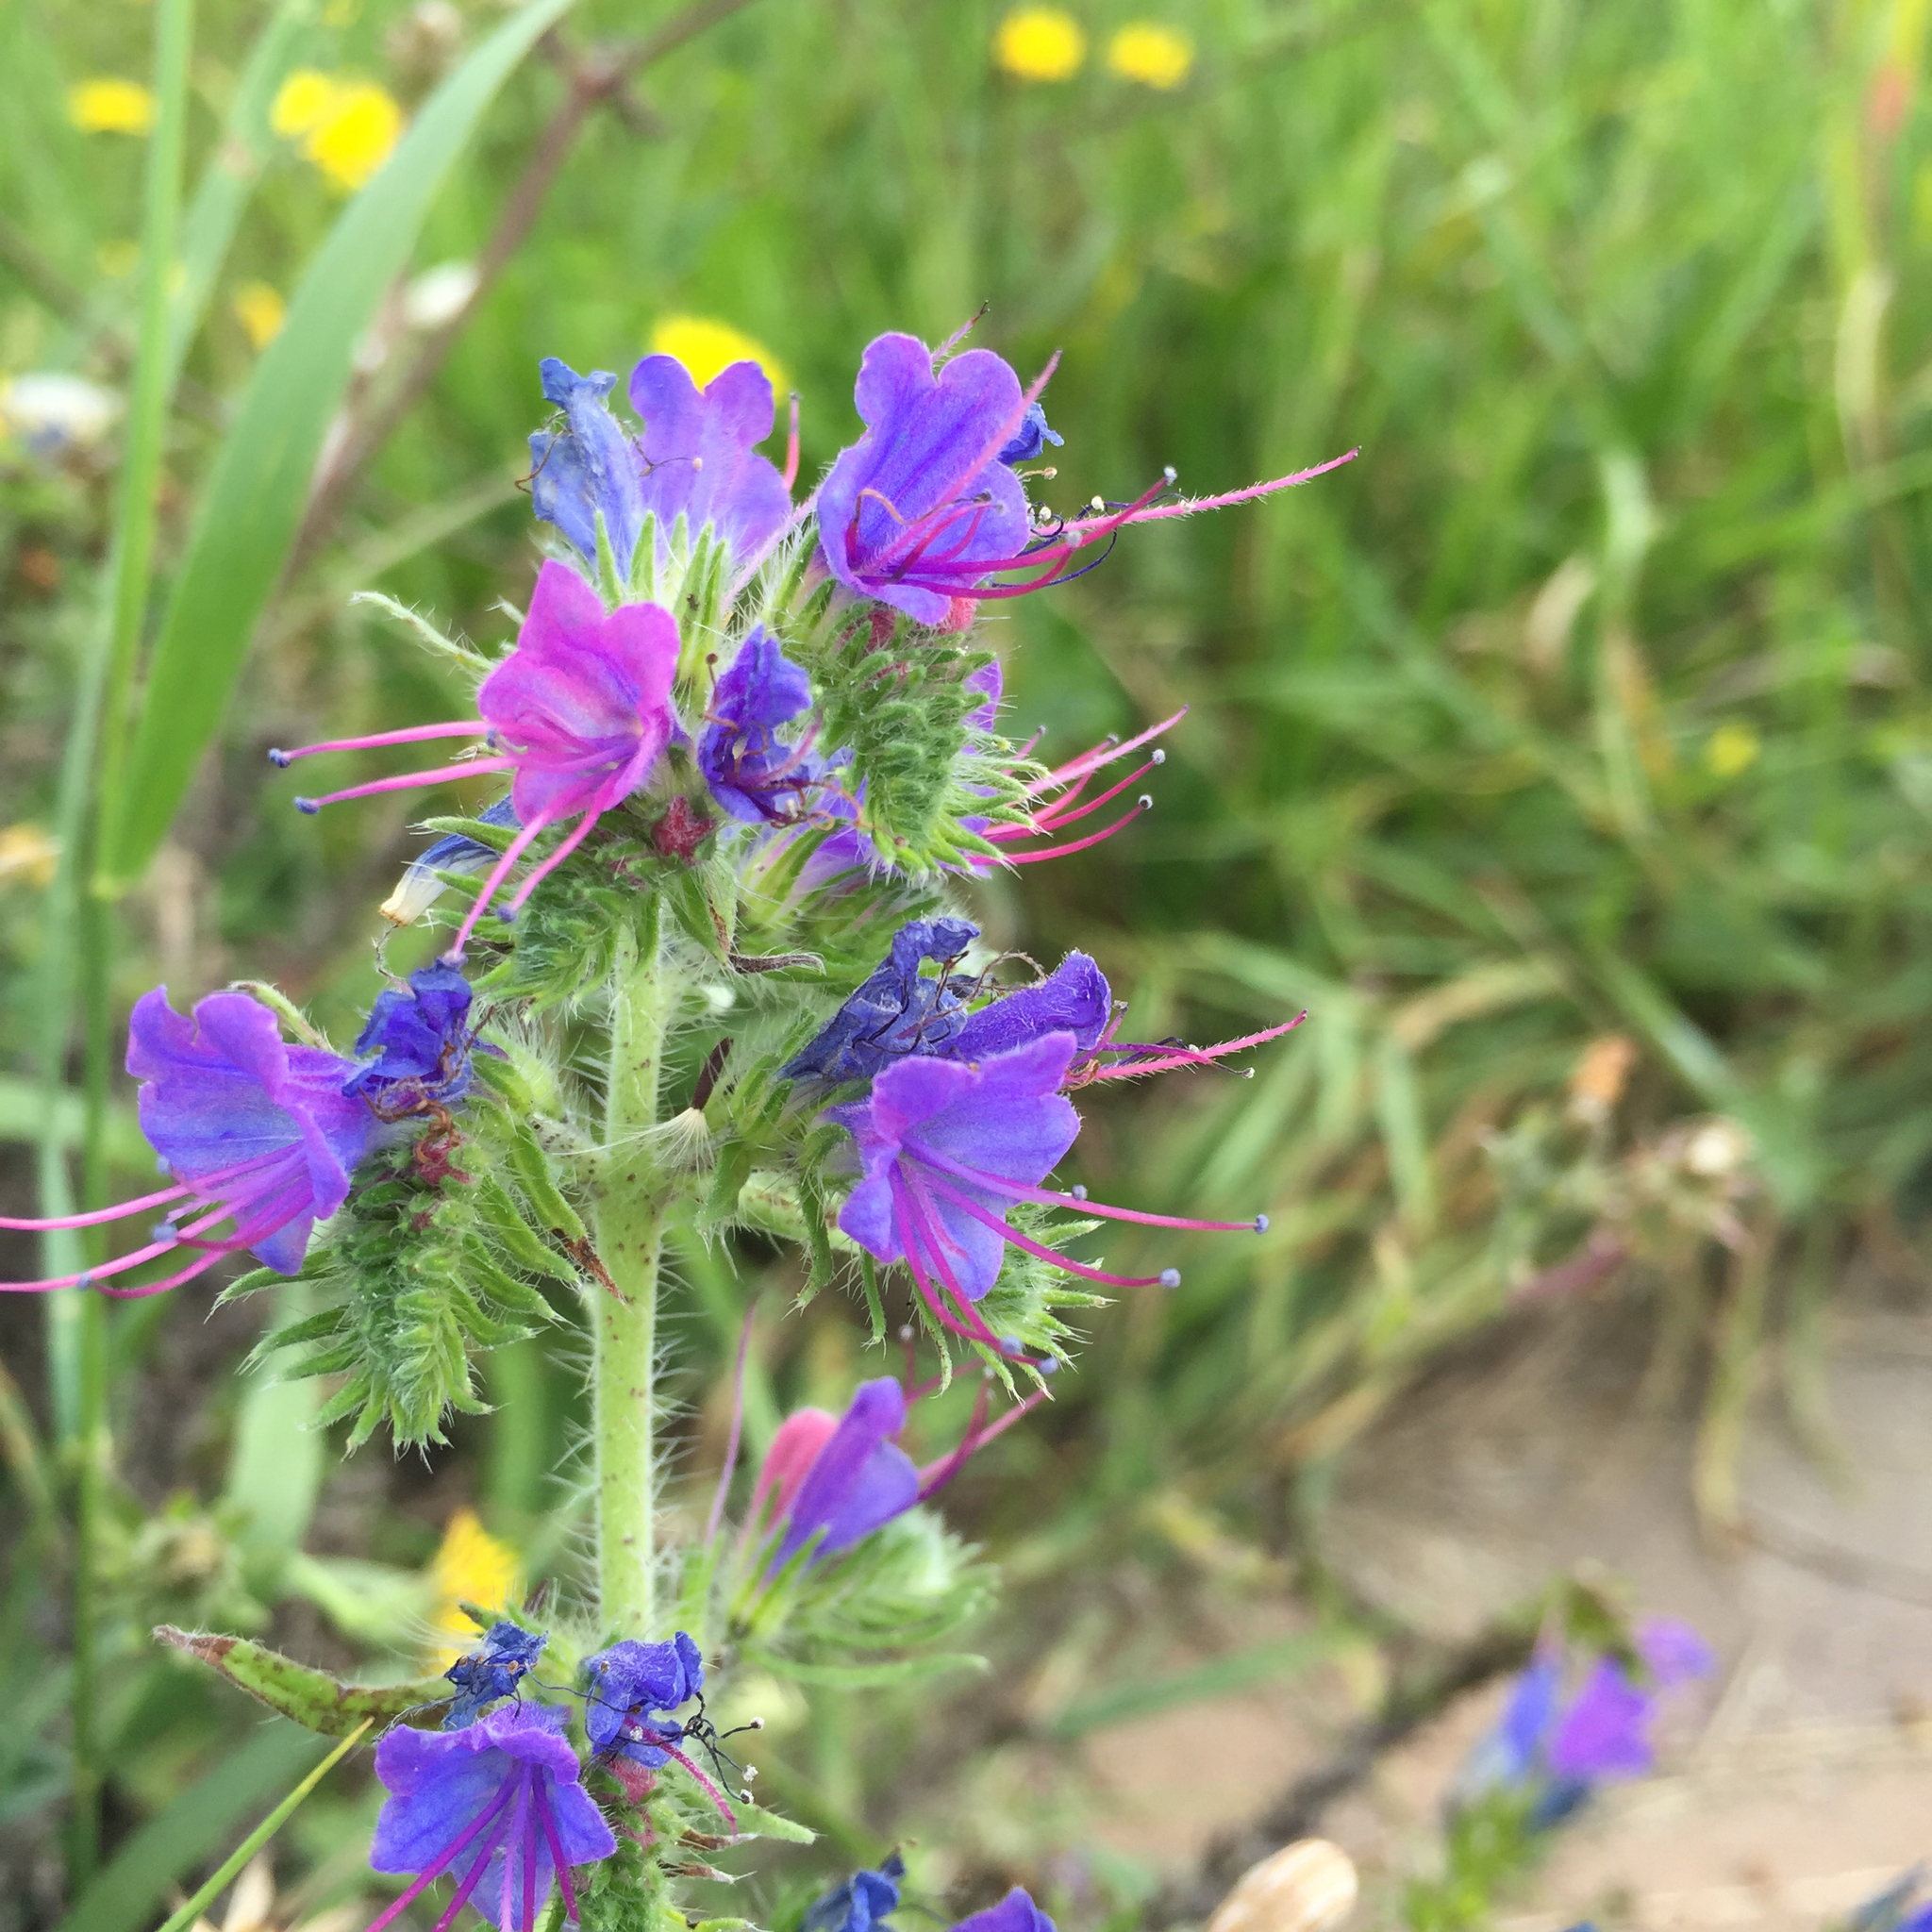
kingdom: Plantae
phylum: Tracheophyta
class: Magnoliopsida
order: Boraginales
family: Boraginaceae
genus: Echium
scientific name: Echium vulgare
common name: Common viper's bugloss
